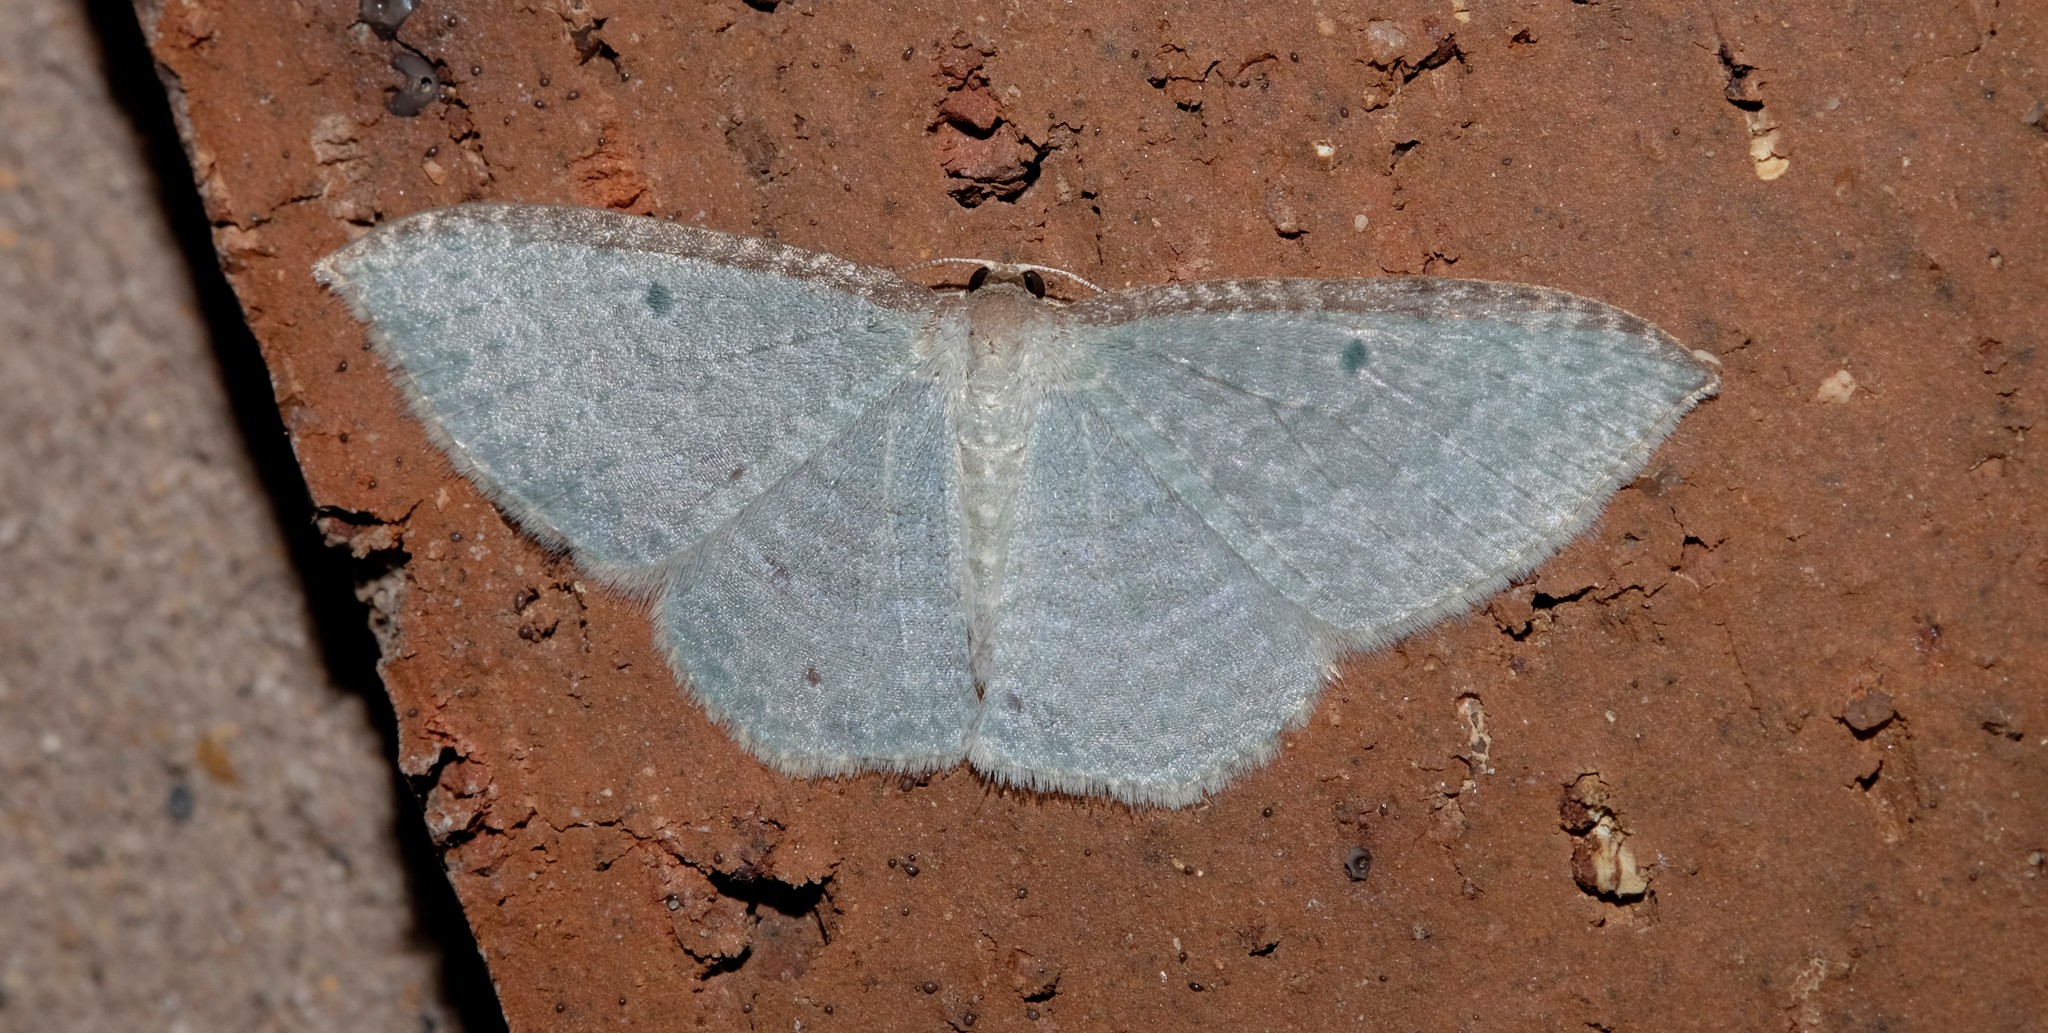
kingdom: Animalia
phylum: Arthropoda
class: Insecta
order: Lepidoptera
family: Geometridae
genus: Poecilasthena
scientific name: Poecilasthena pulchraria
